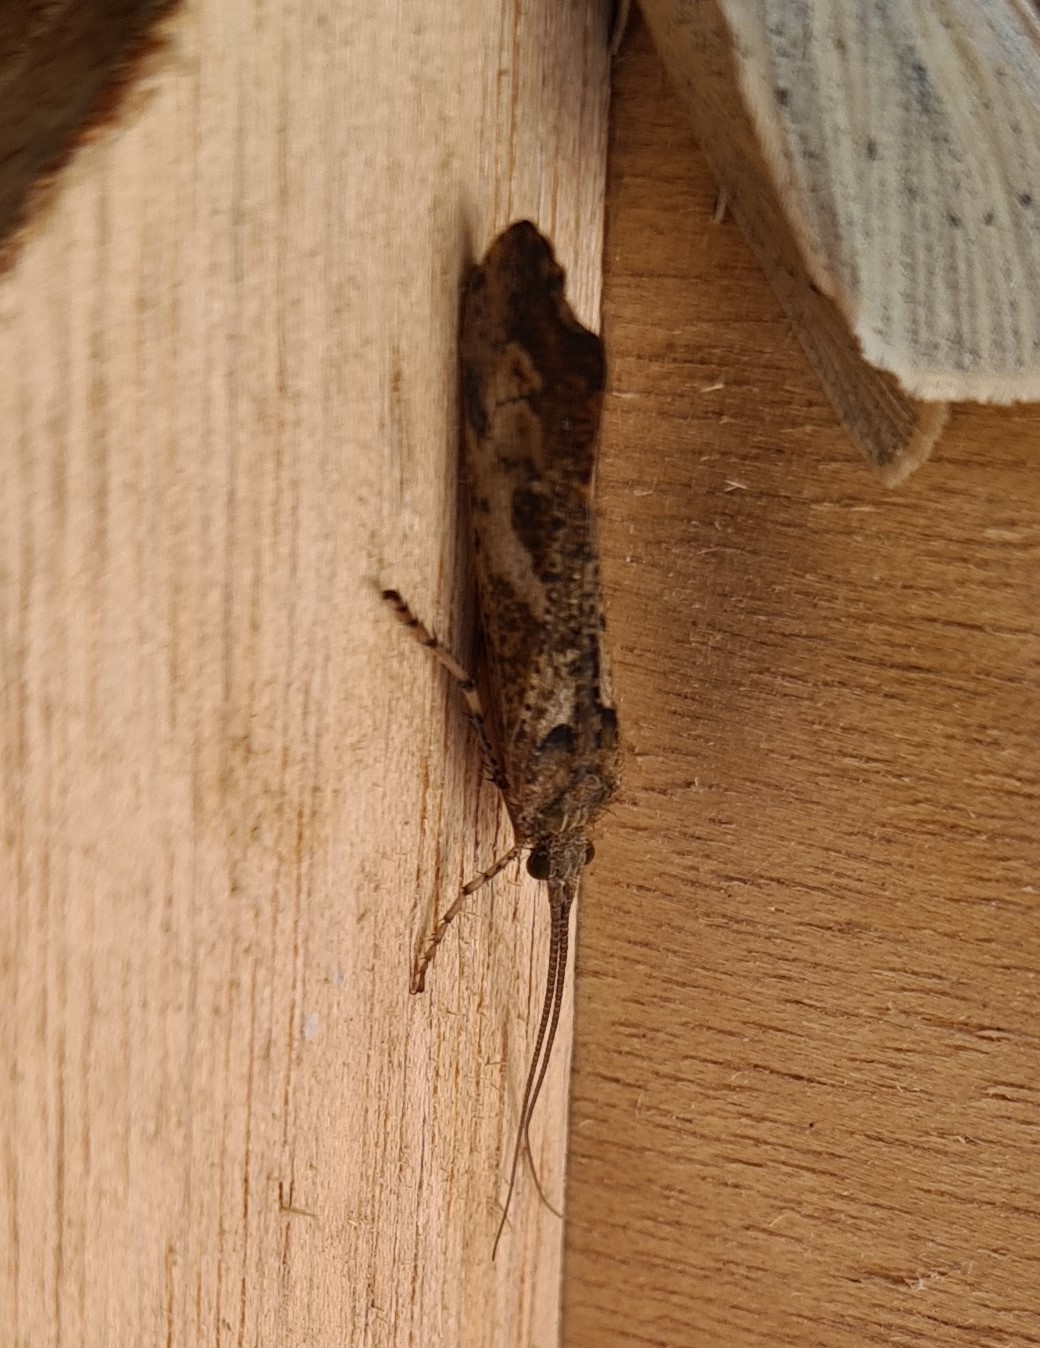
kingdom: Animalia
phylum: Arthropoda
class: Insecta
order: Trichoptera
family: Limnephilidae
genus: Glyphotaelius
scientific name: Glyphotaelius pellucidus
